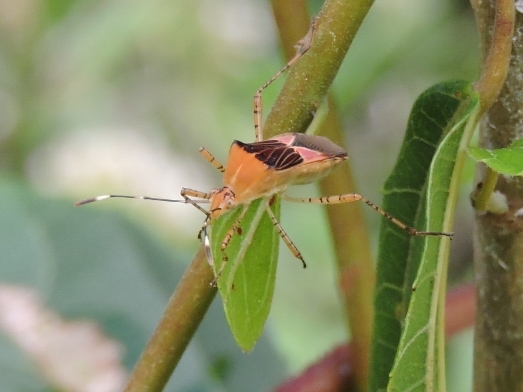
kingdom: Animalia
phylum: Arthropoda
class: Insecta
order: Hemiptera
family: Coreidae
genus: Hypselonotus
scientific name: Hypselonotus fulvus
